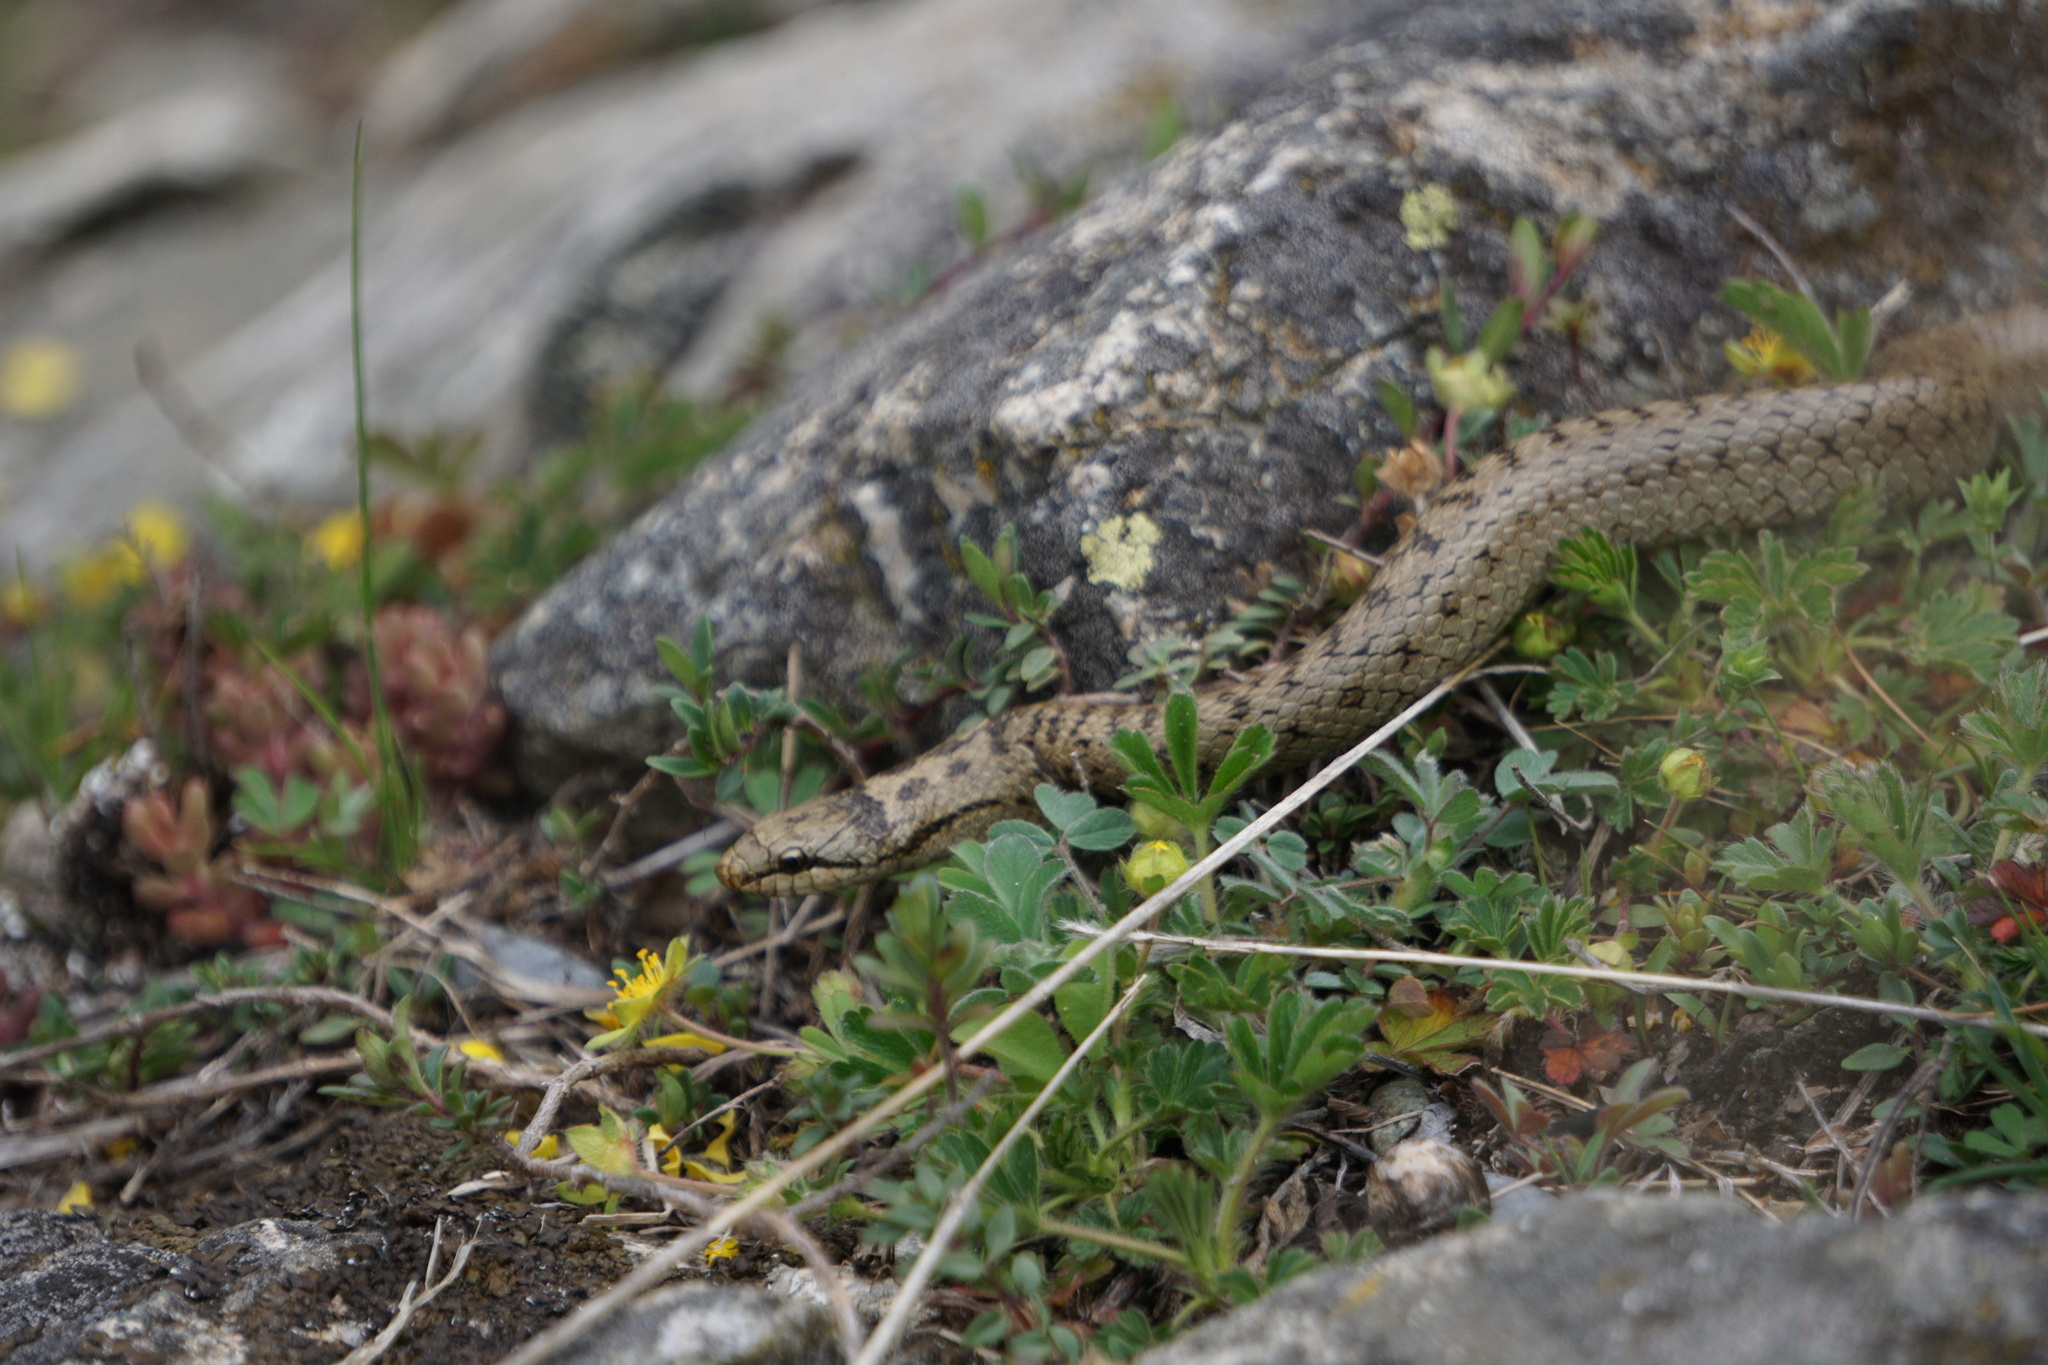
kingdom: Animalia
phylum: Chordata
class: Squamata
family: Colubridae
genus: Coronella
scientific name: Coronella austriaca
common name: Smooth snake
